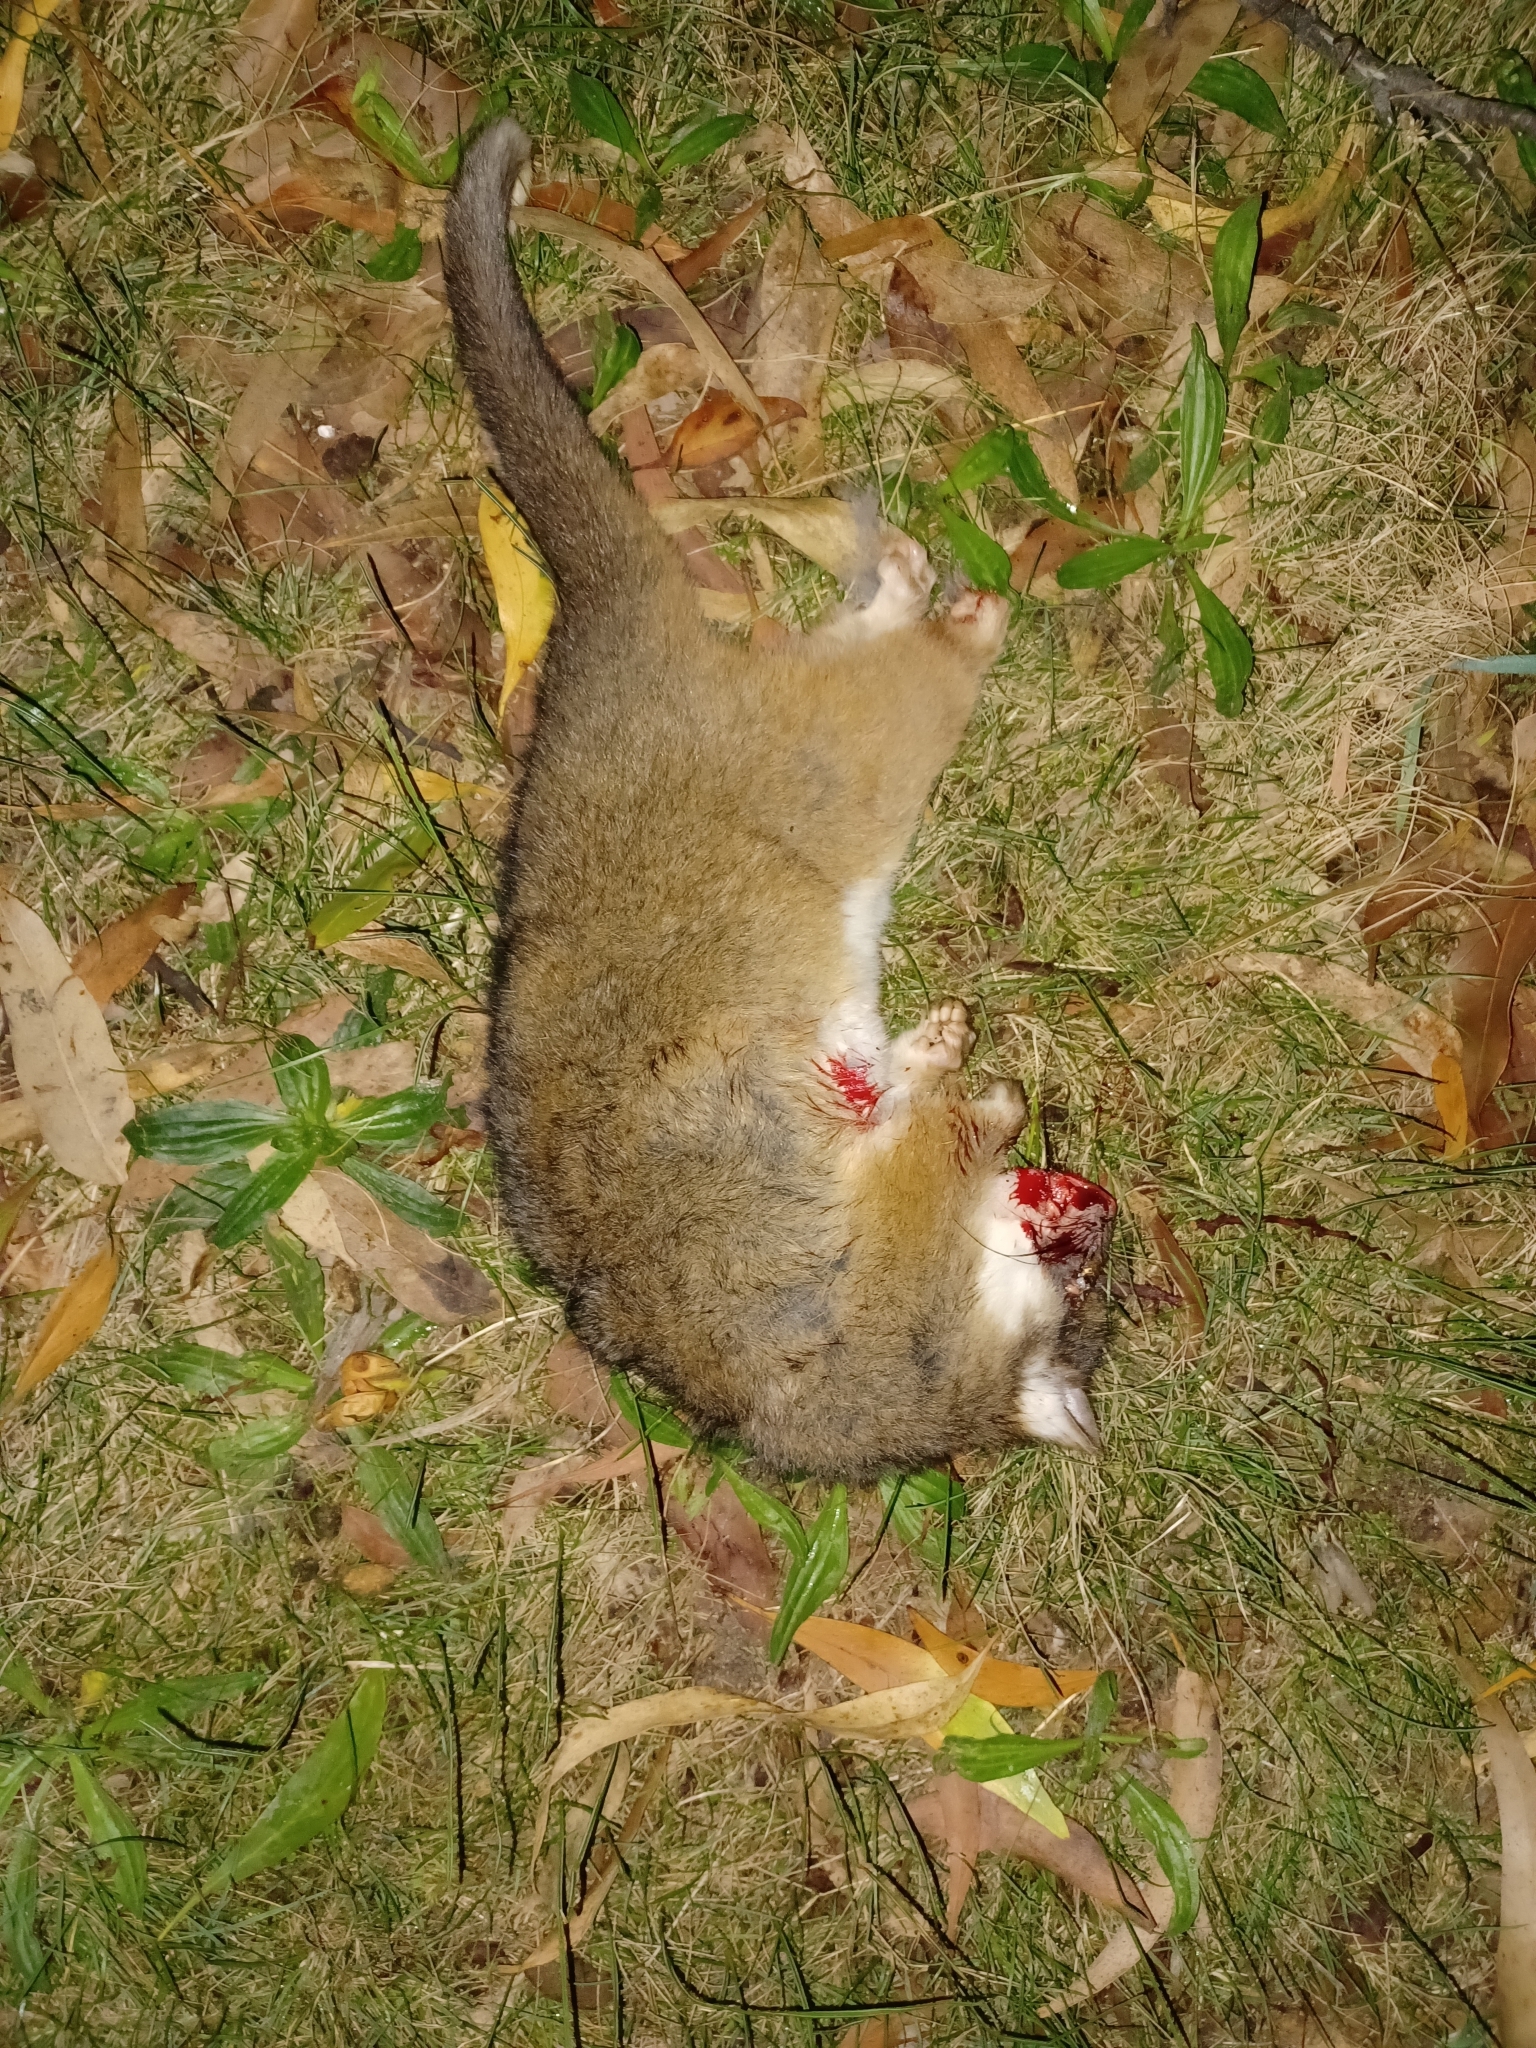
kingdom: Animalia
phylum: Chordata
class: Mammalia
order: Diprotodontia
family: Pseudocheiridae
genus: Pseudocheirus
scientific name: Pseudocheirus peregrinus
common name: Common ringtail possum
